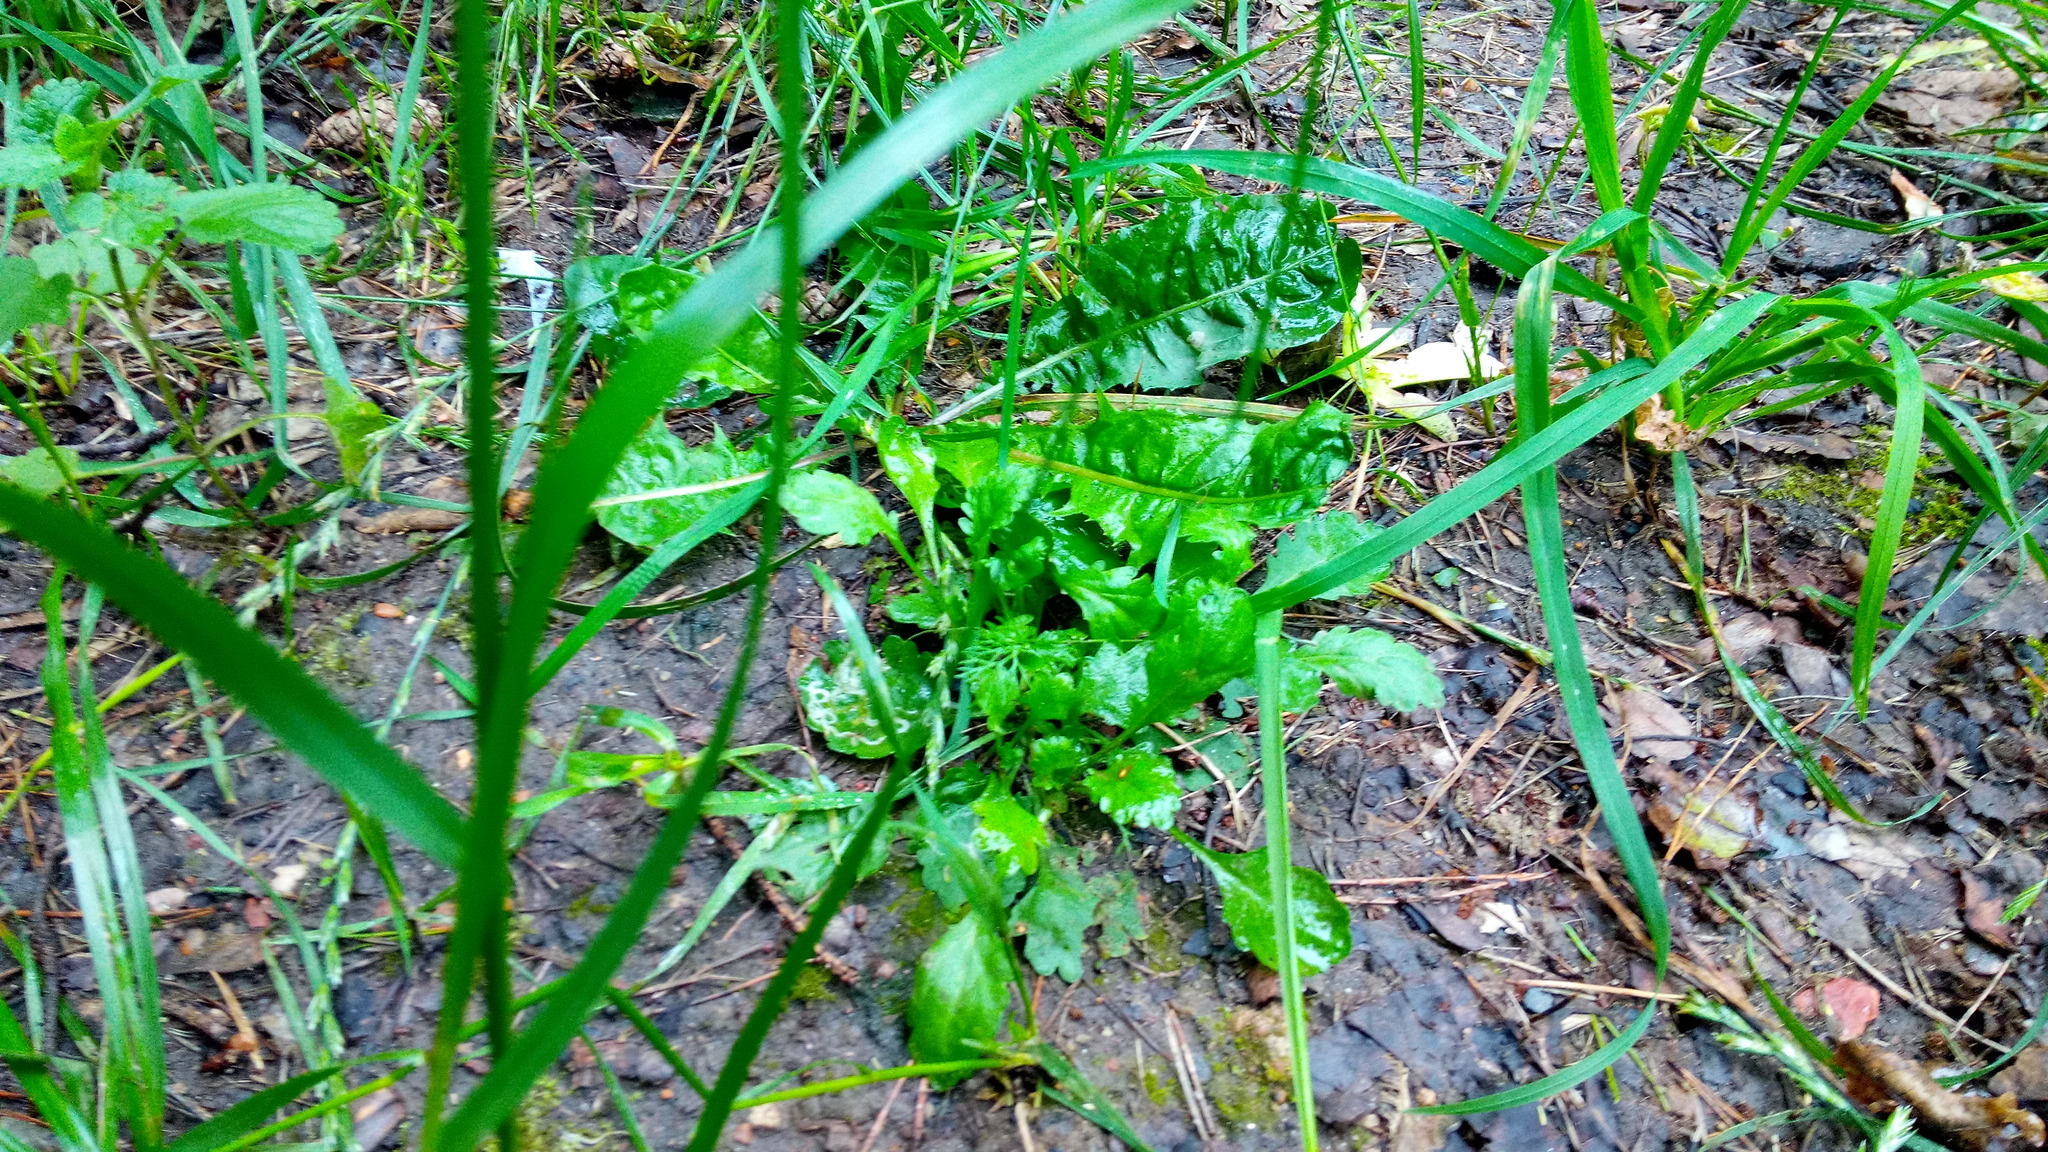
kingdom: Plantae
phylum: Tracheophyta
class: Magnoliopsida
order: Asterales
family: Asteraceae
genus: Leucanthemum
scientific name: Leucanthemum vulgare
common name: Oxeye daisy
